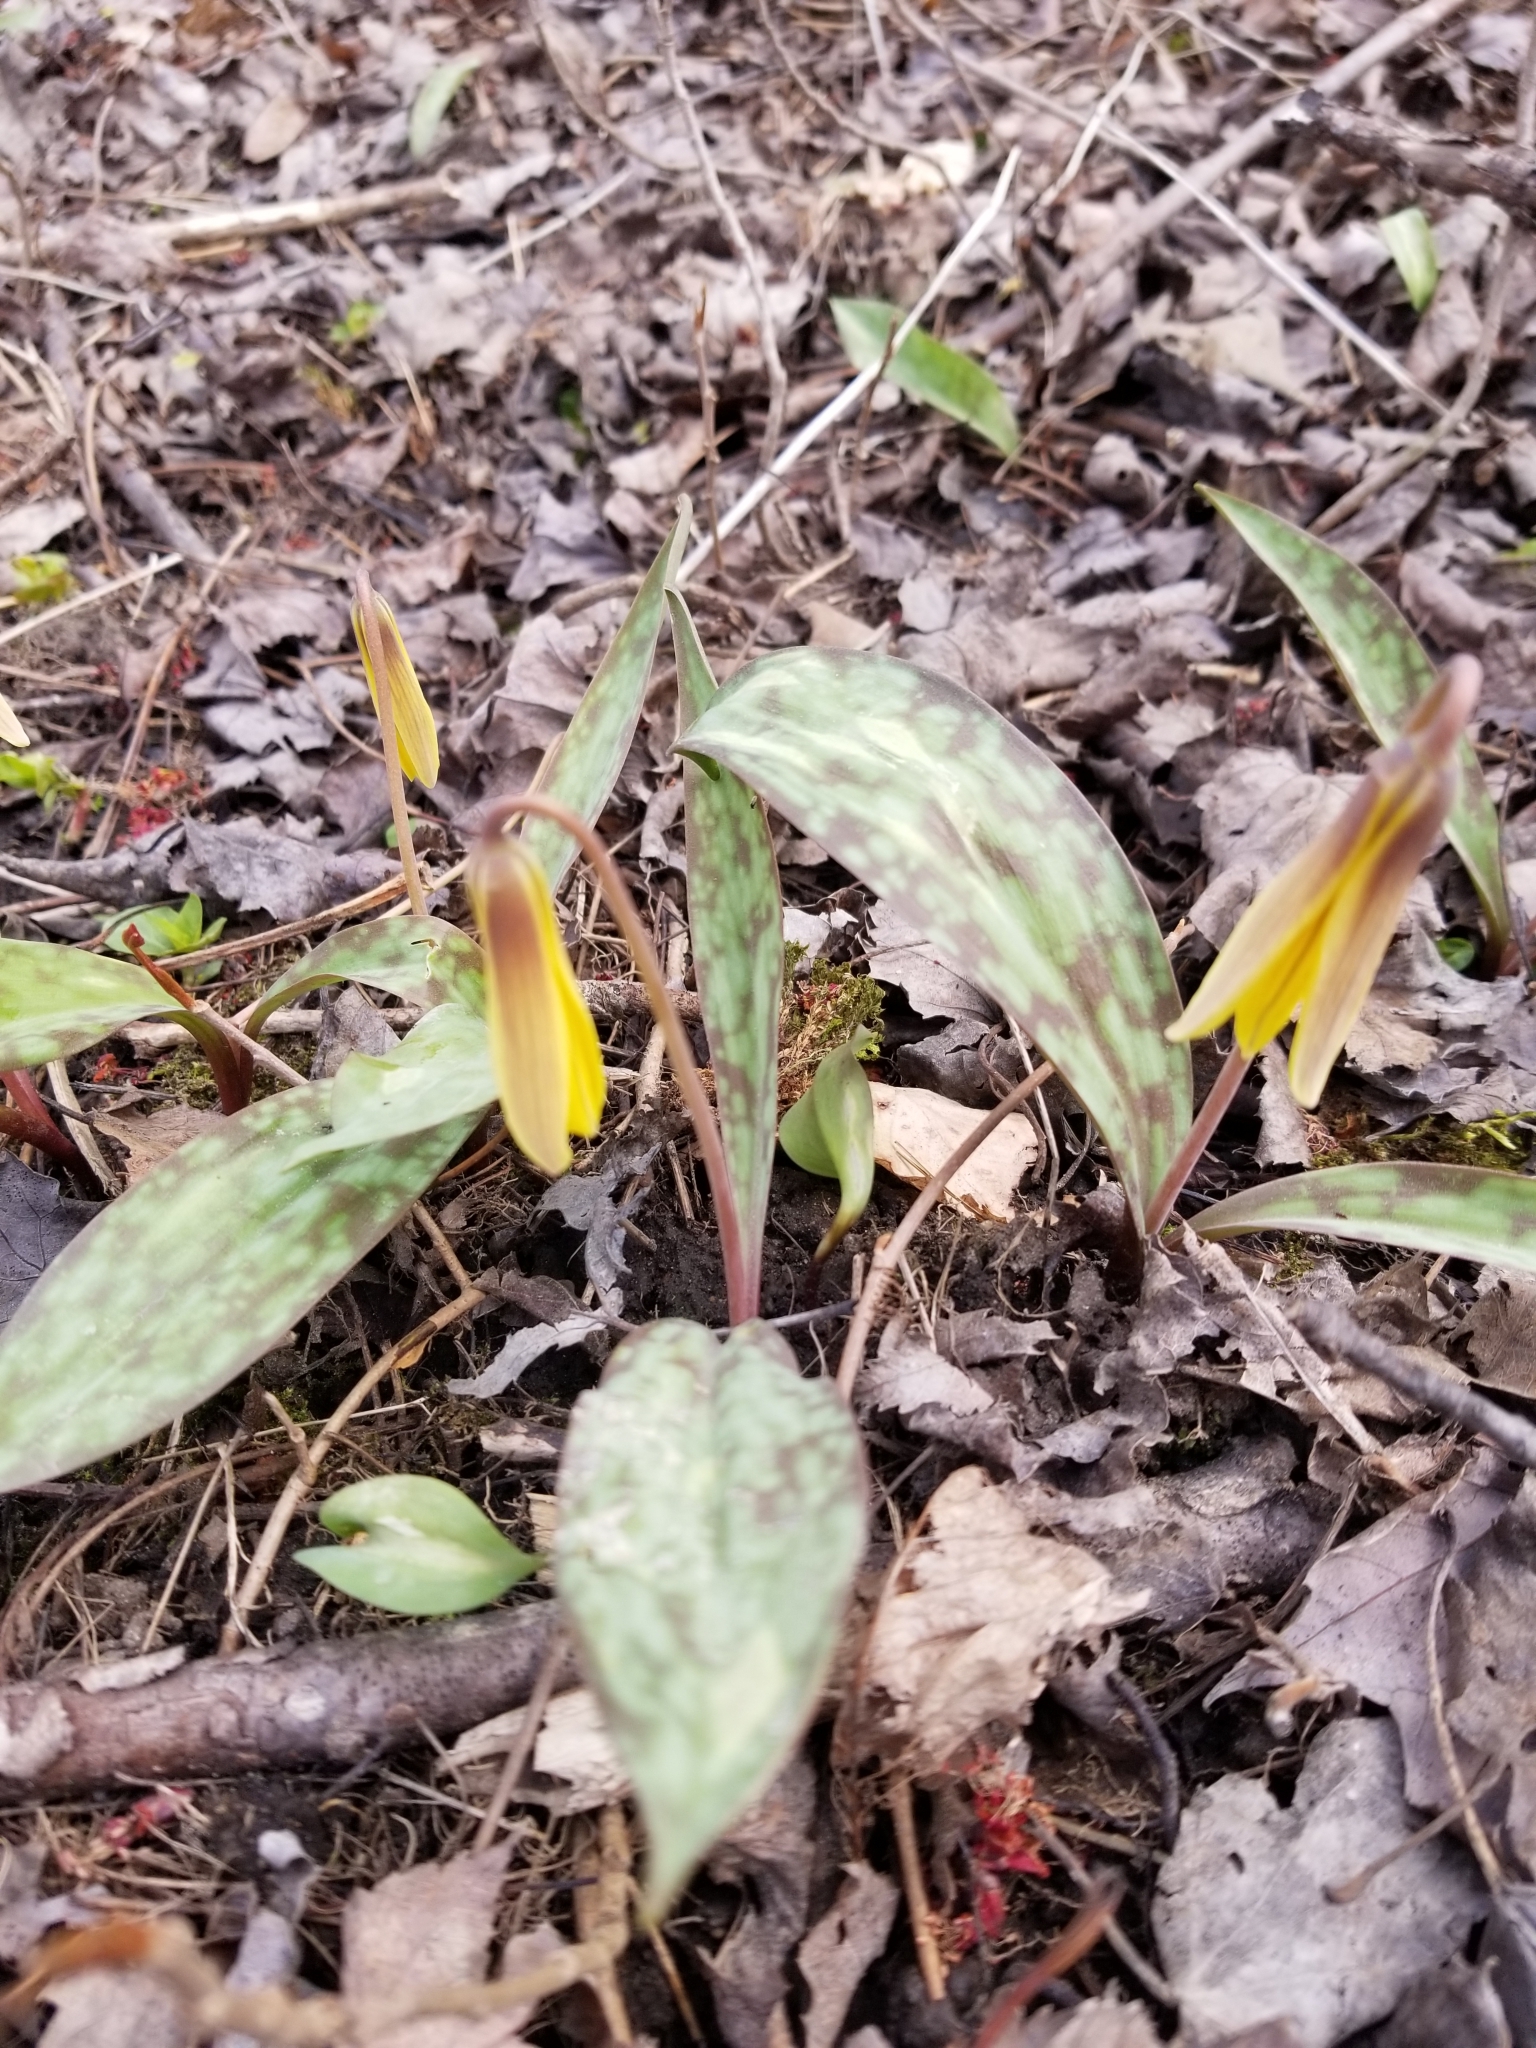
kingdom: Plantae
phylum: Tracheophyta
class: Liliopsida
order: Liliales
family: Liliaceae
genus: Erythronium
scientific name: Erythronium americanum
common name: Yellow adder's-tongue
